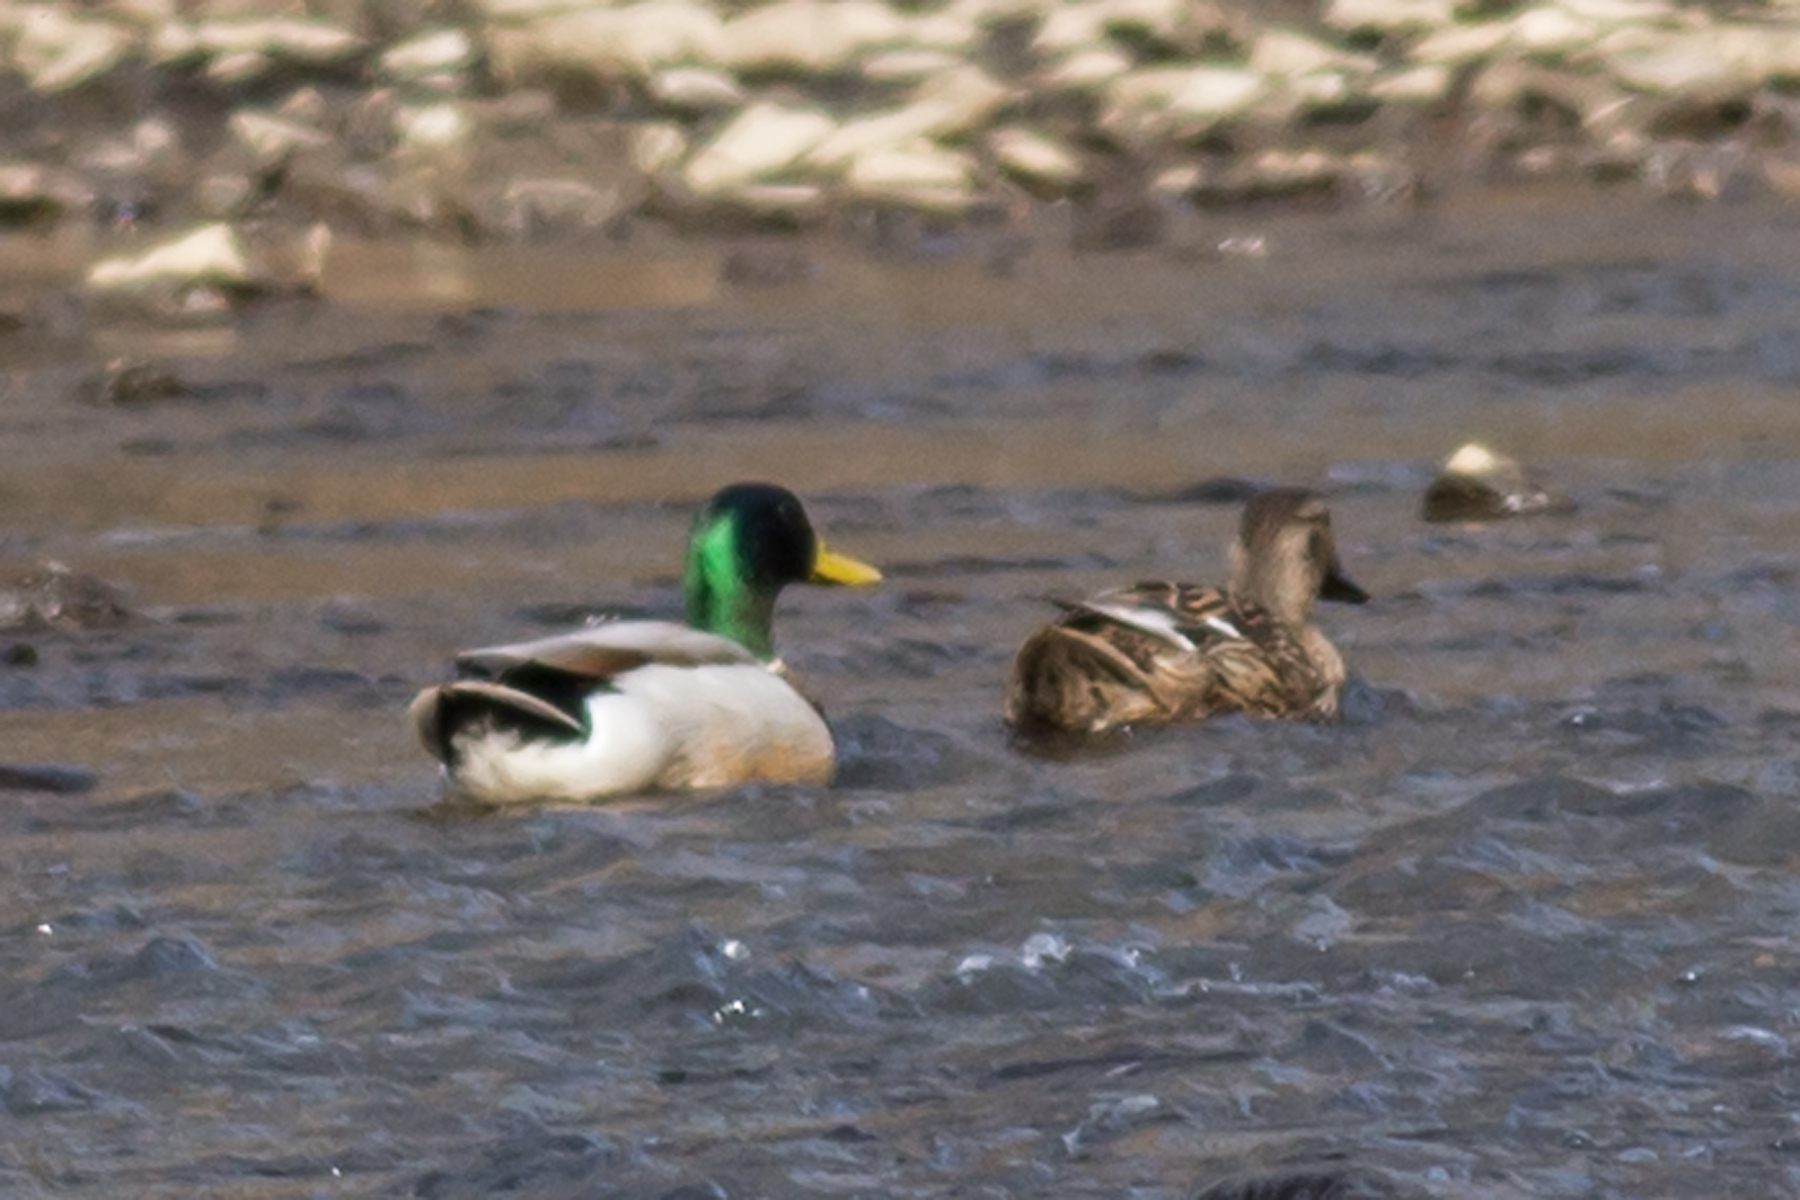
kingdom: Animalia
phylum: Chordata
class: Aves
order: Anseriformes
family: Anatidae
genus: Anas
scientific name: Anas platyrhynchos
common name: Mallard
